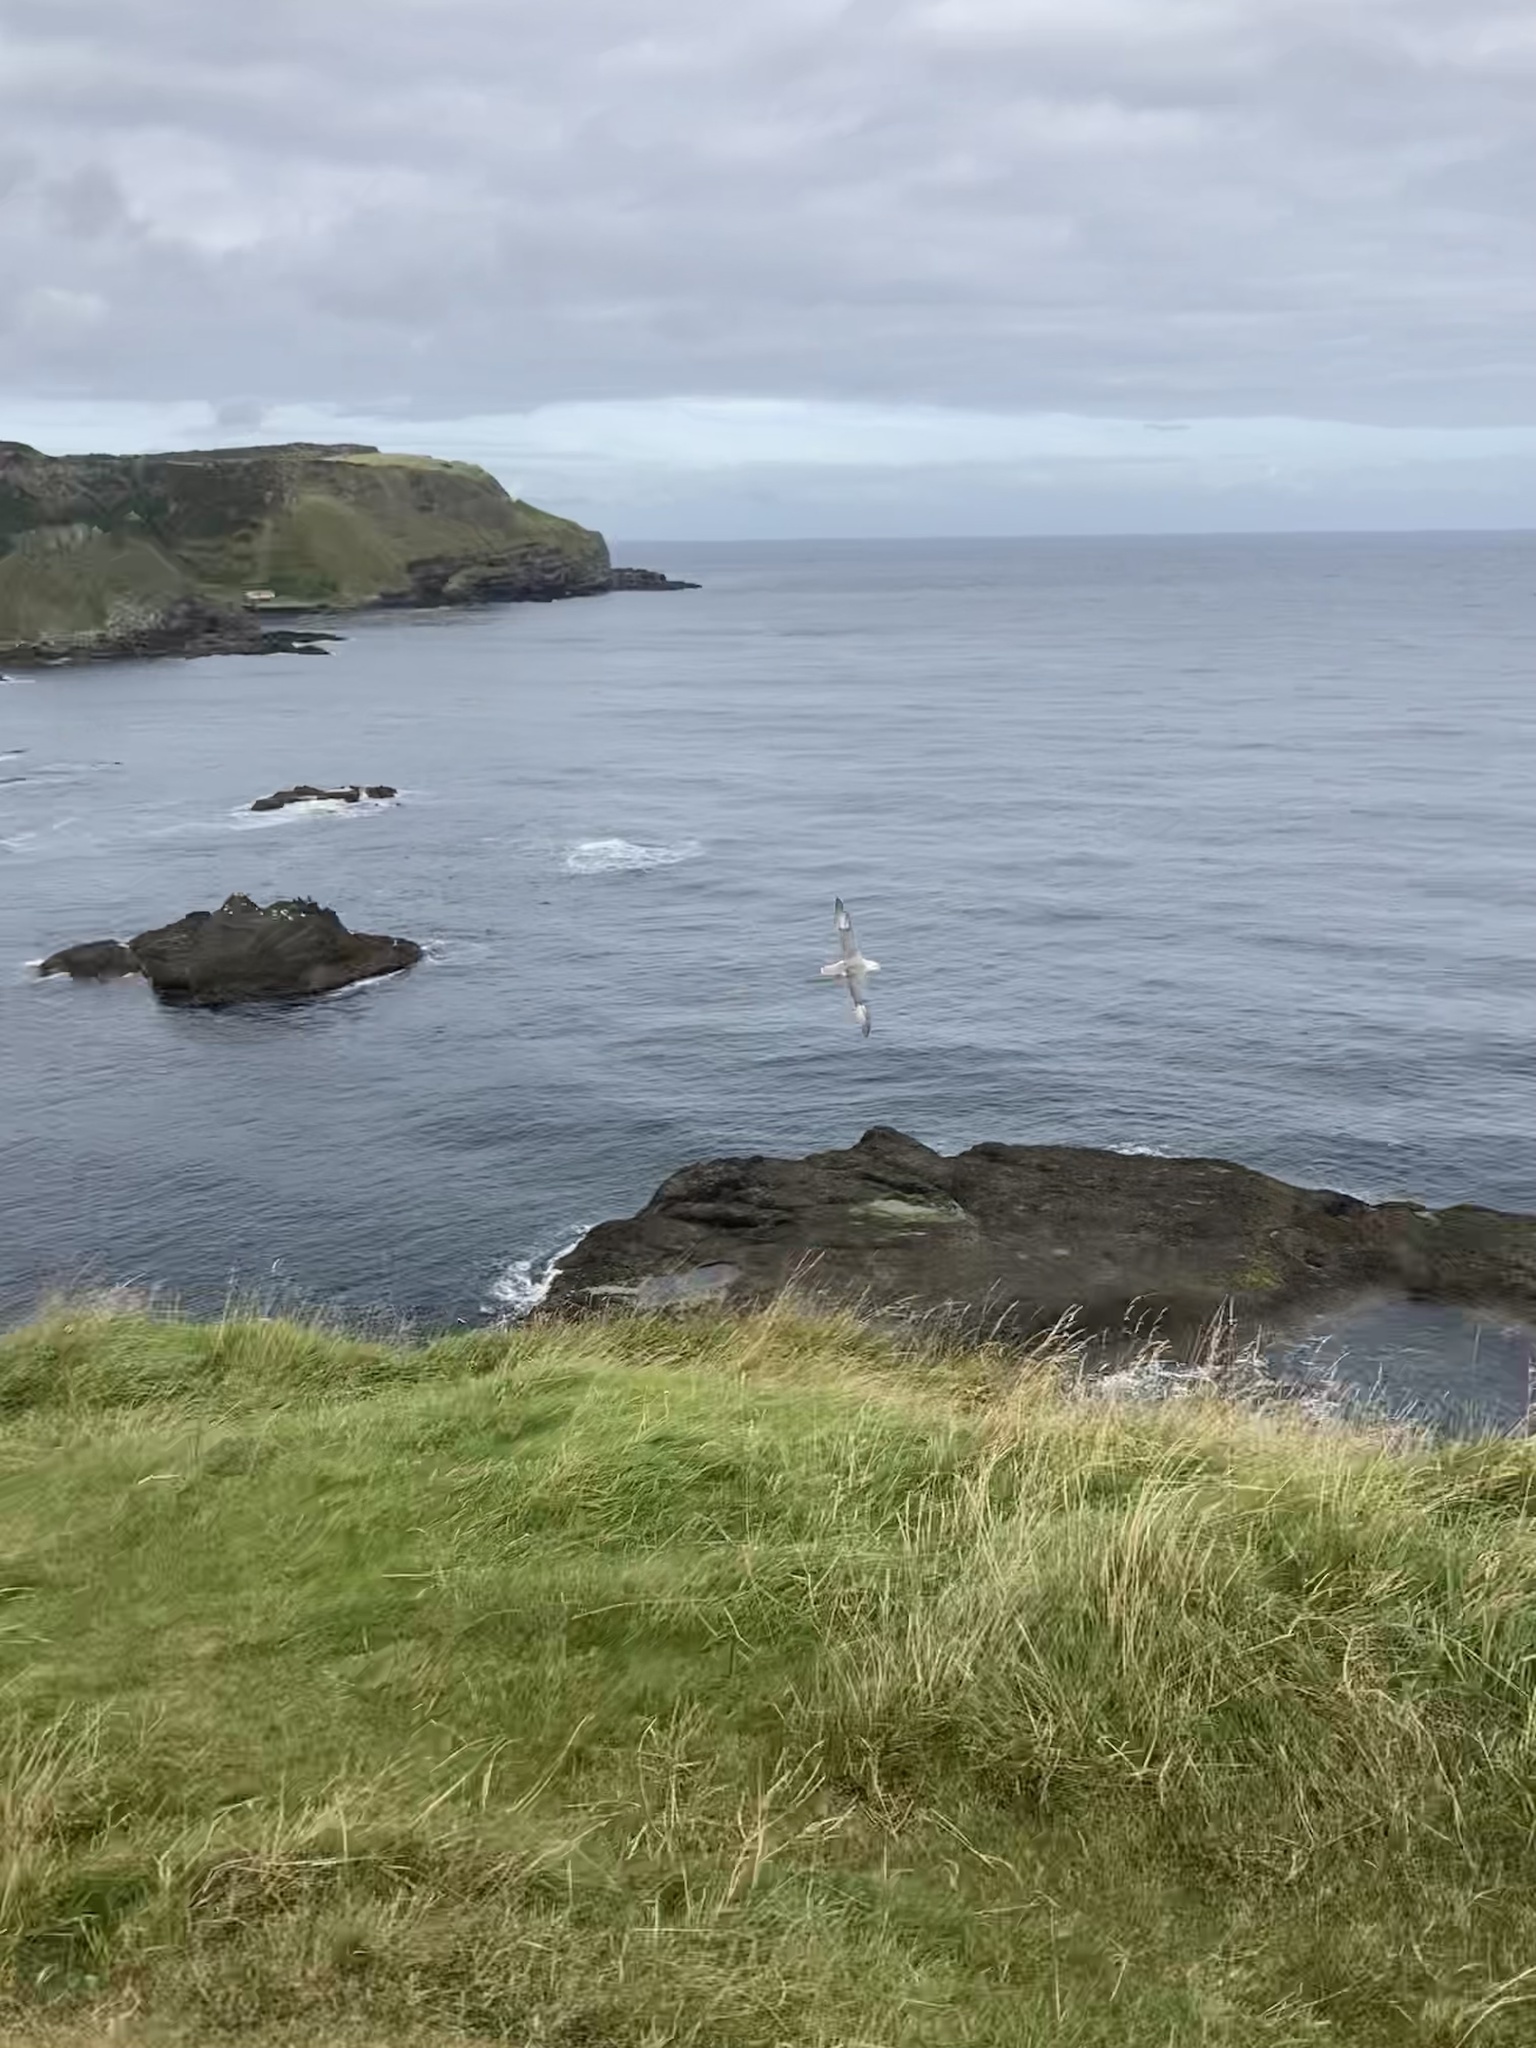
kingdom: Animalia
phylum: Chordata
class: Aves
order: Procellariiformes
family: Procellariidae
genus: Fulmarus
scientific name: Fulmarus glacialis
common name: Northern fulmar
